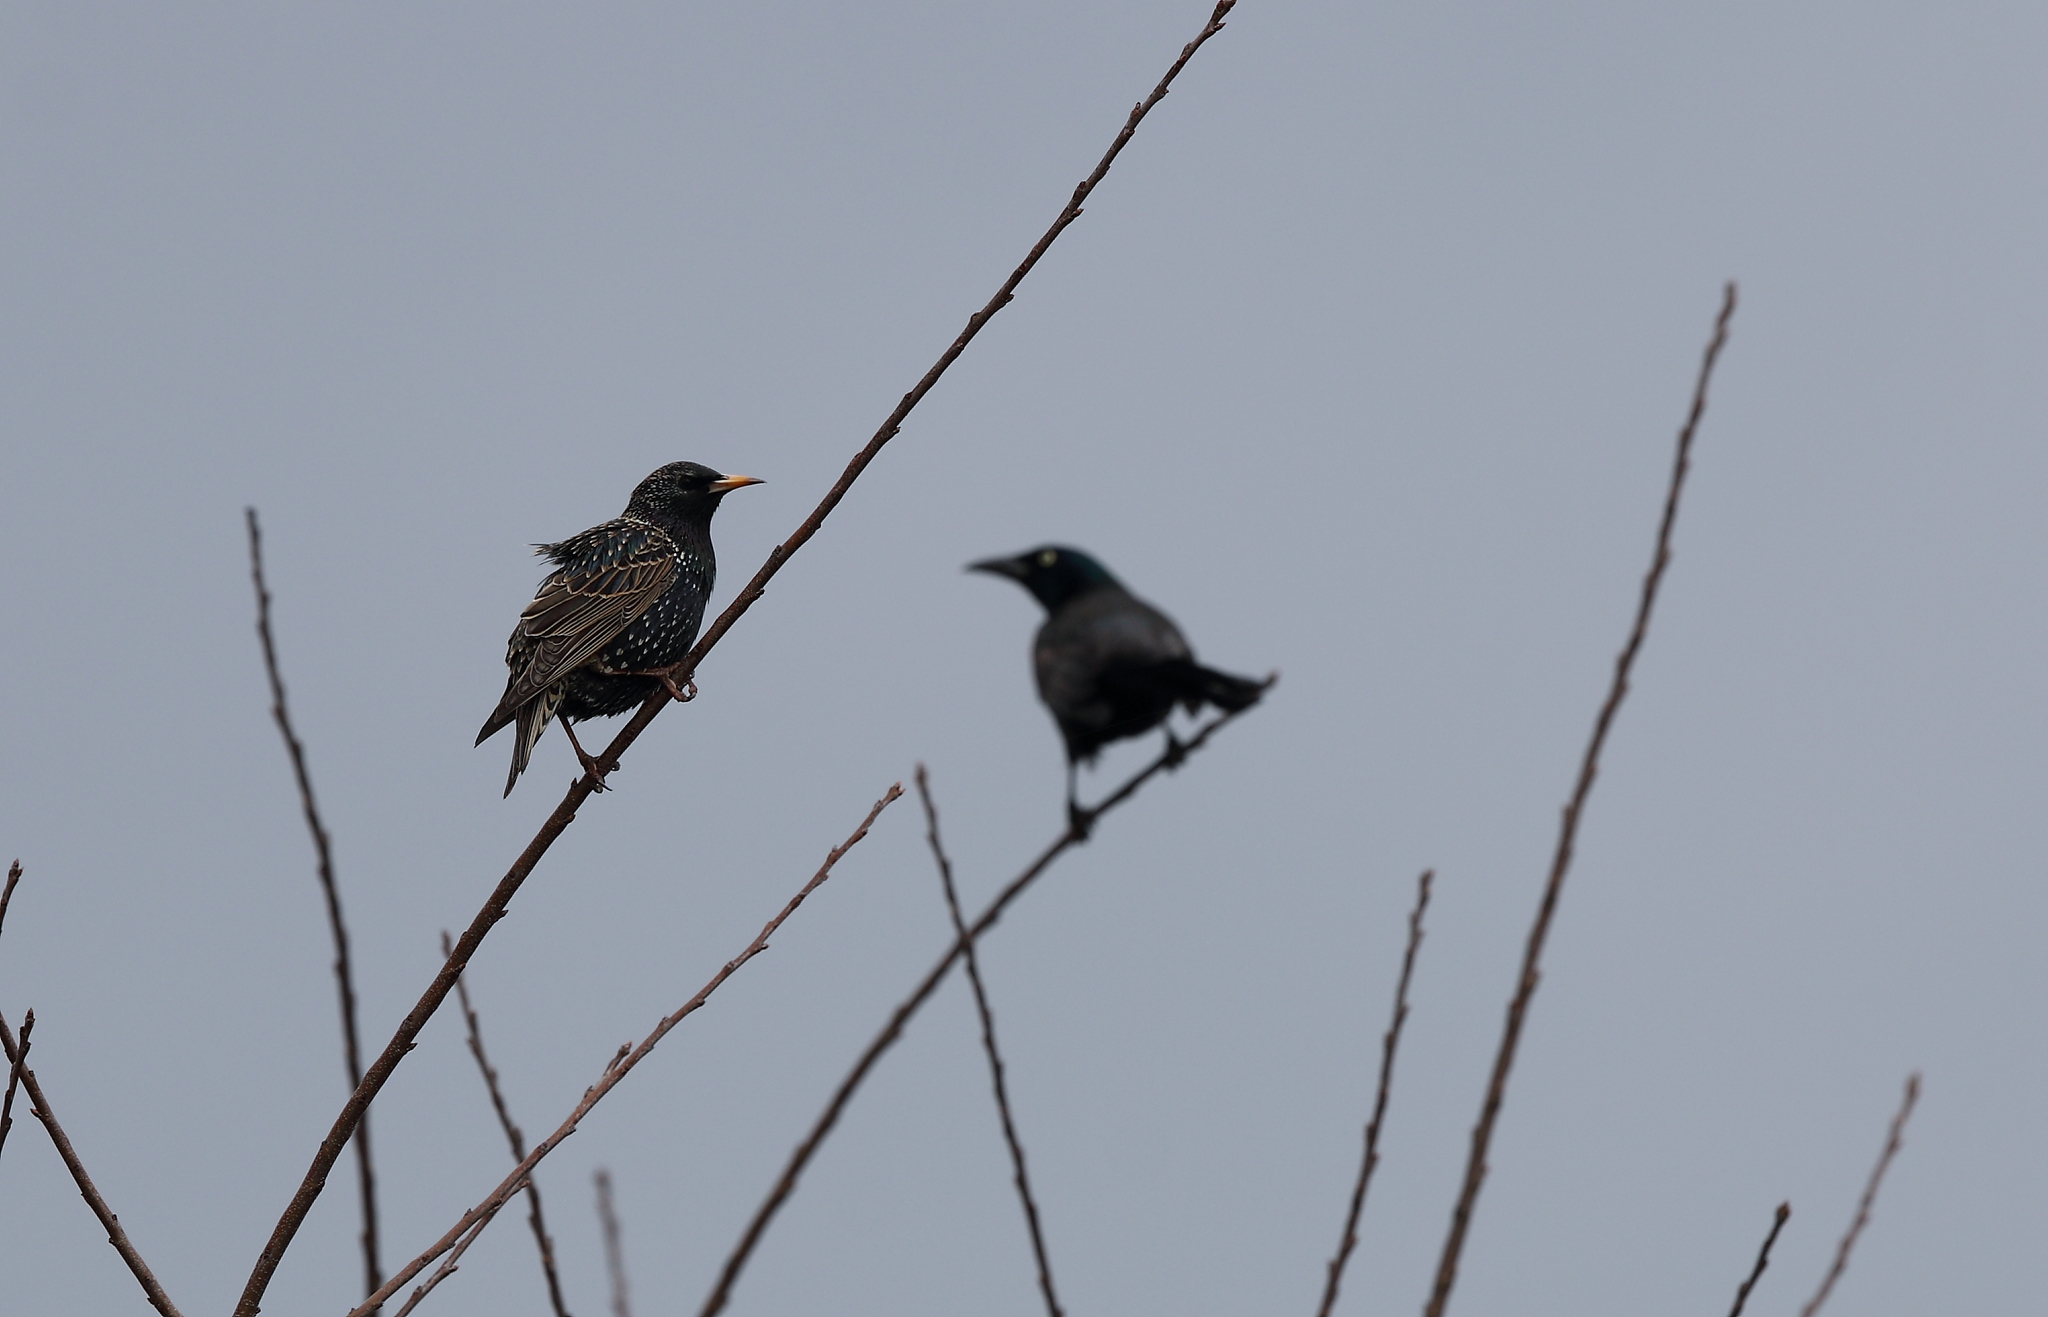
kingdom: Animalia
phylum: Chordata
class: Aves
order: Passeriformes
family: Sturnidae
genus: Sturnus
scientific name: Sturnus vulgaris
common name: Common starling
